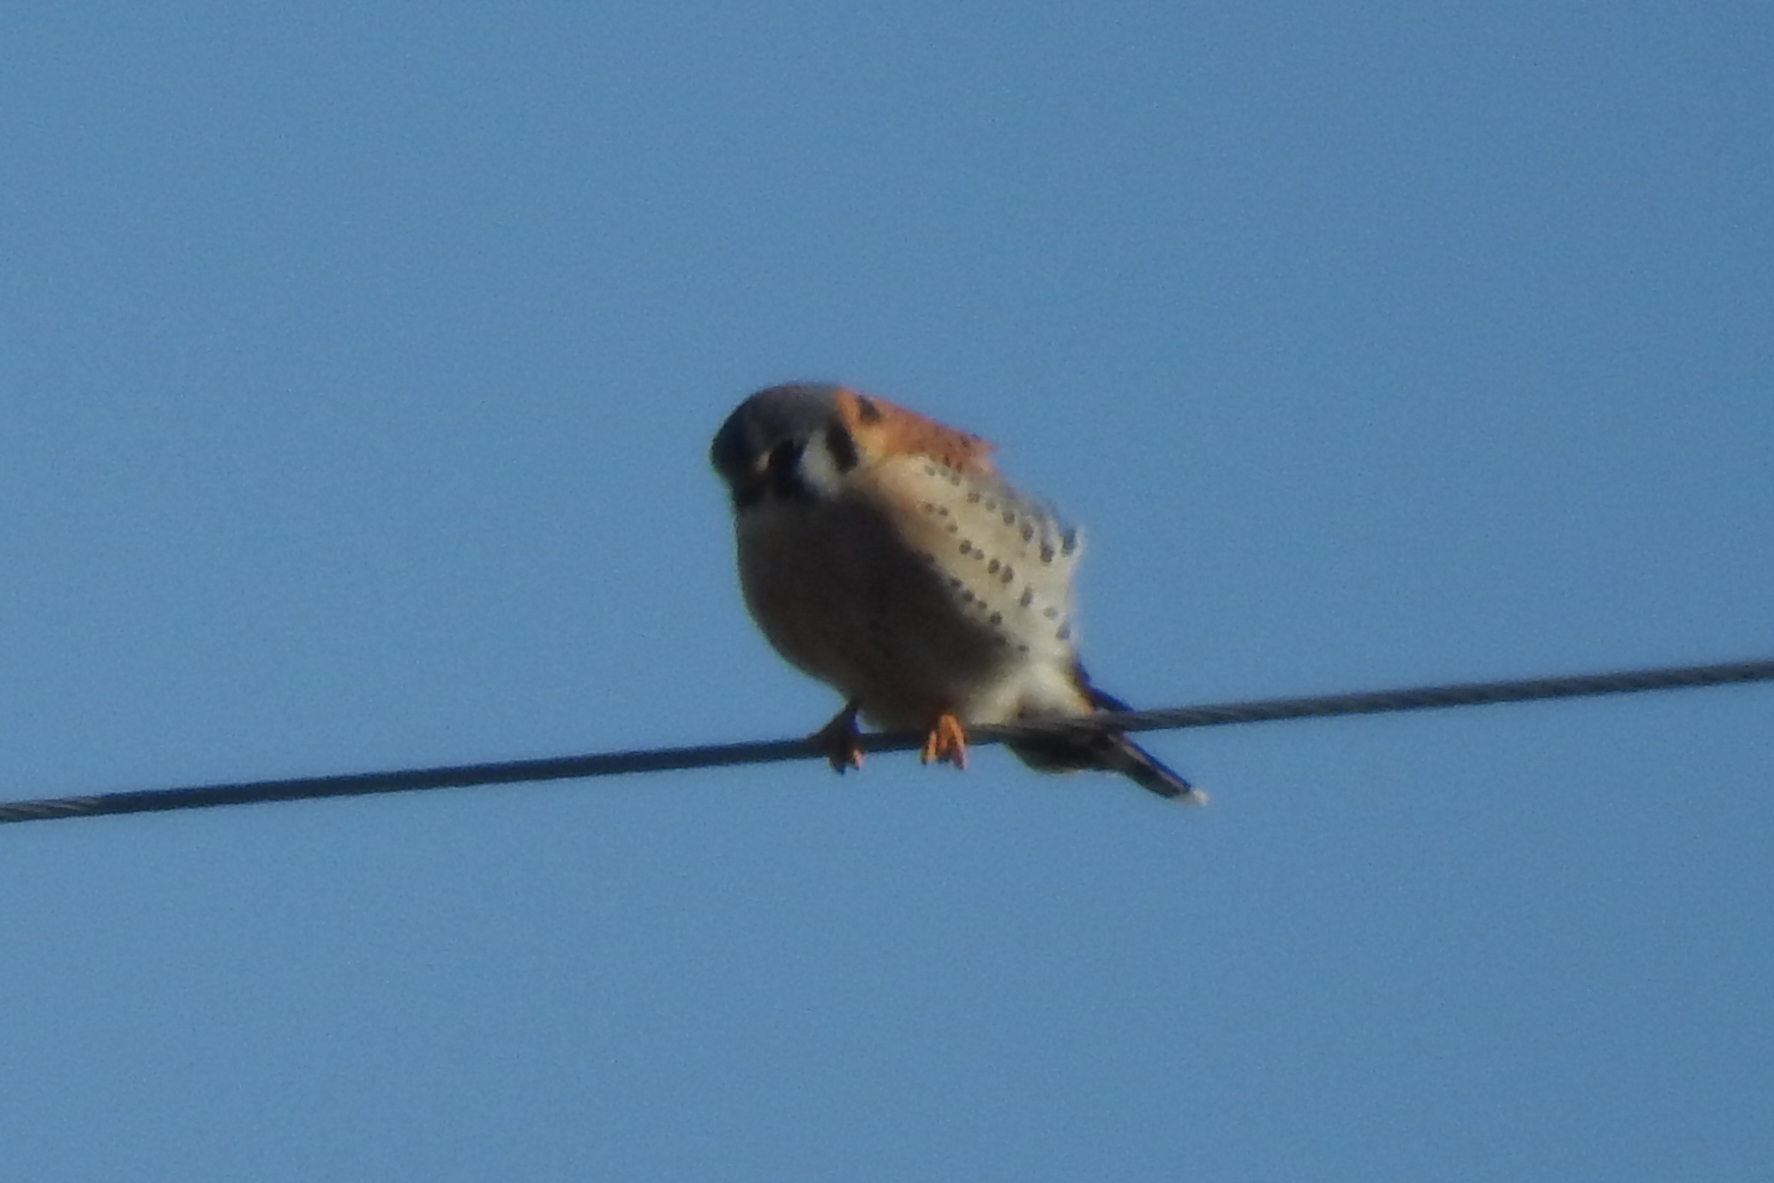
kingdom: Animalia
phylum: Chordata
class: Aves
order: Falconiformes
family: Falconidae
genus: Falco
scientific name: Falco sparverius
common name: American kestrel
